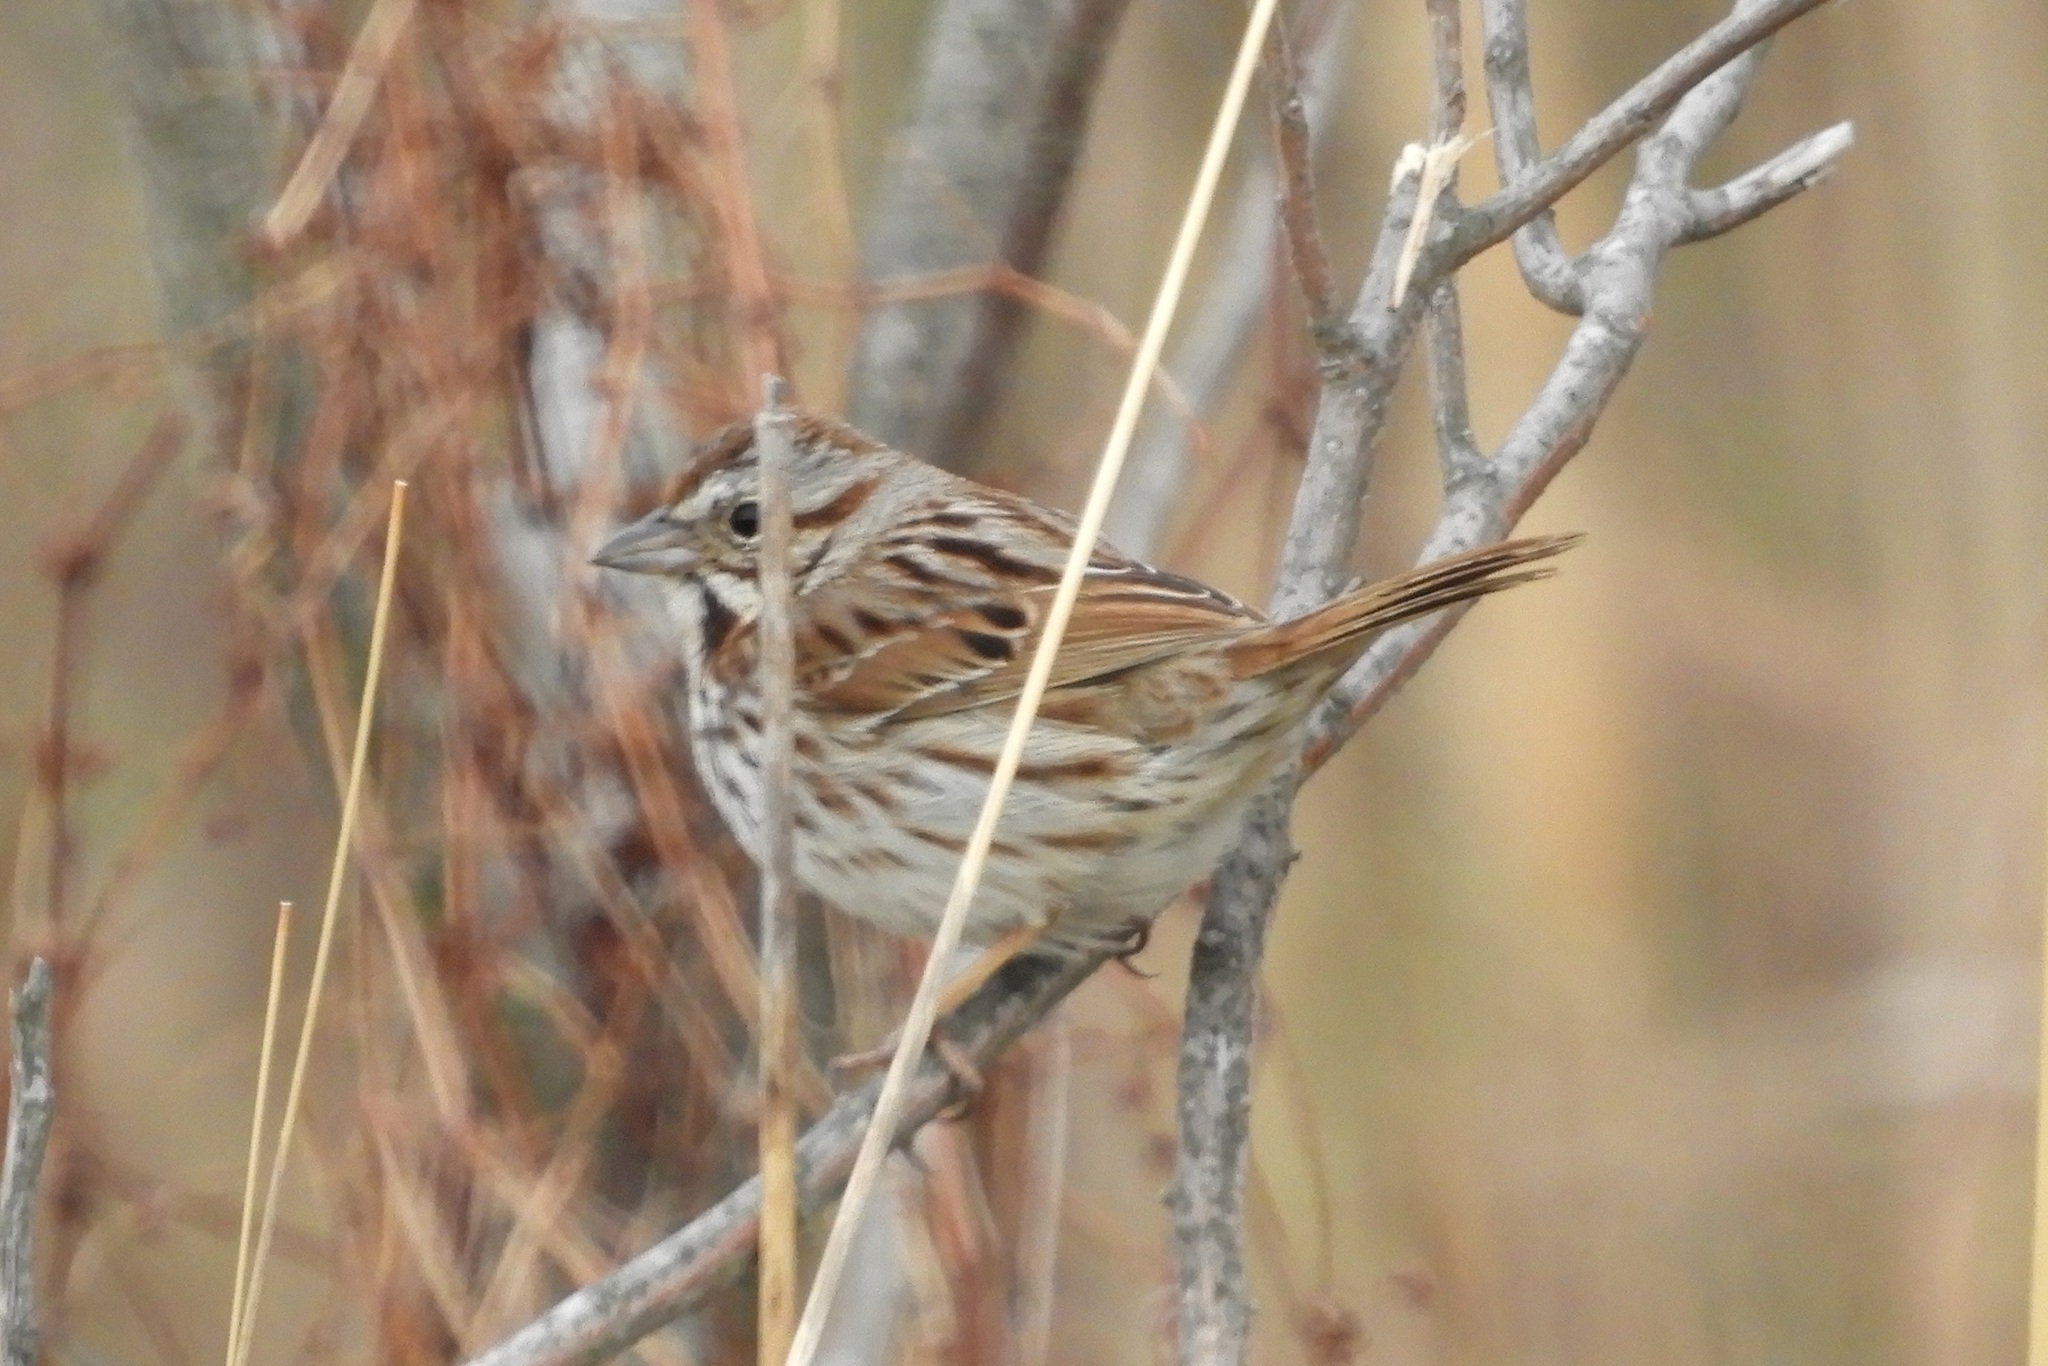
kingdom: Animalia
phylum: Chordata
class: Aves
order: Passeriformes
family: Passerellidae
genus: Melospiza
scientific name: Melospiza melodia
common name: Song sparrow
